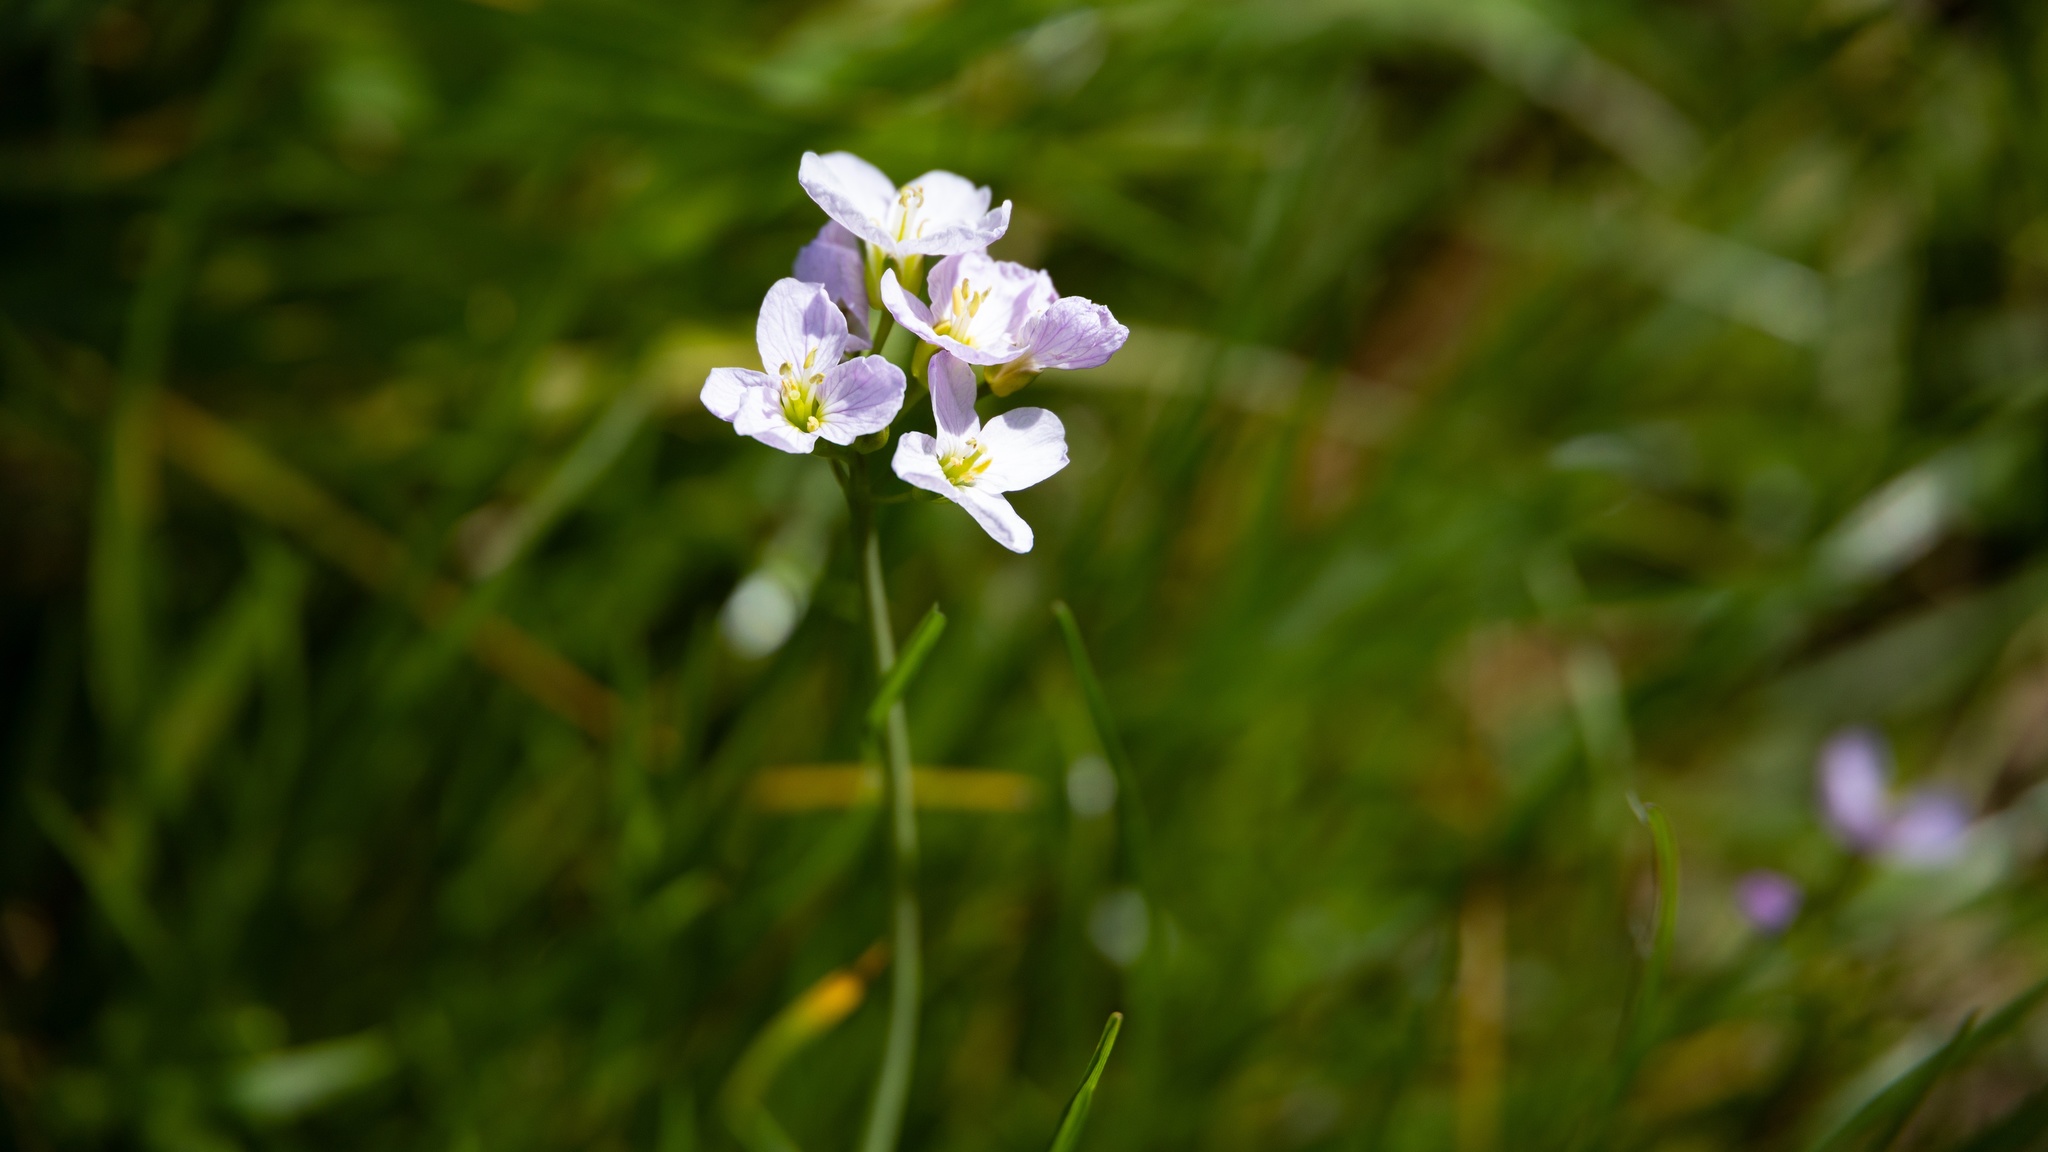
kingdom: Plantae
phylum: Tracheophyta
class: Magnoliopsida
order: Brassicales
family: Brassicaceae
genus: Cardamine
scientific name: Cardamine pratensis
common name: Cuckoo flower
